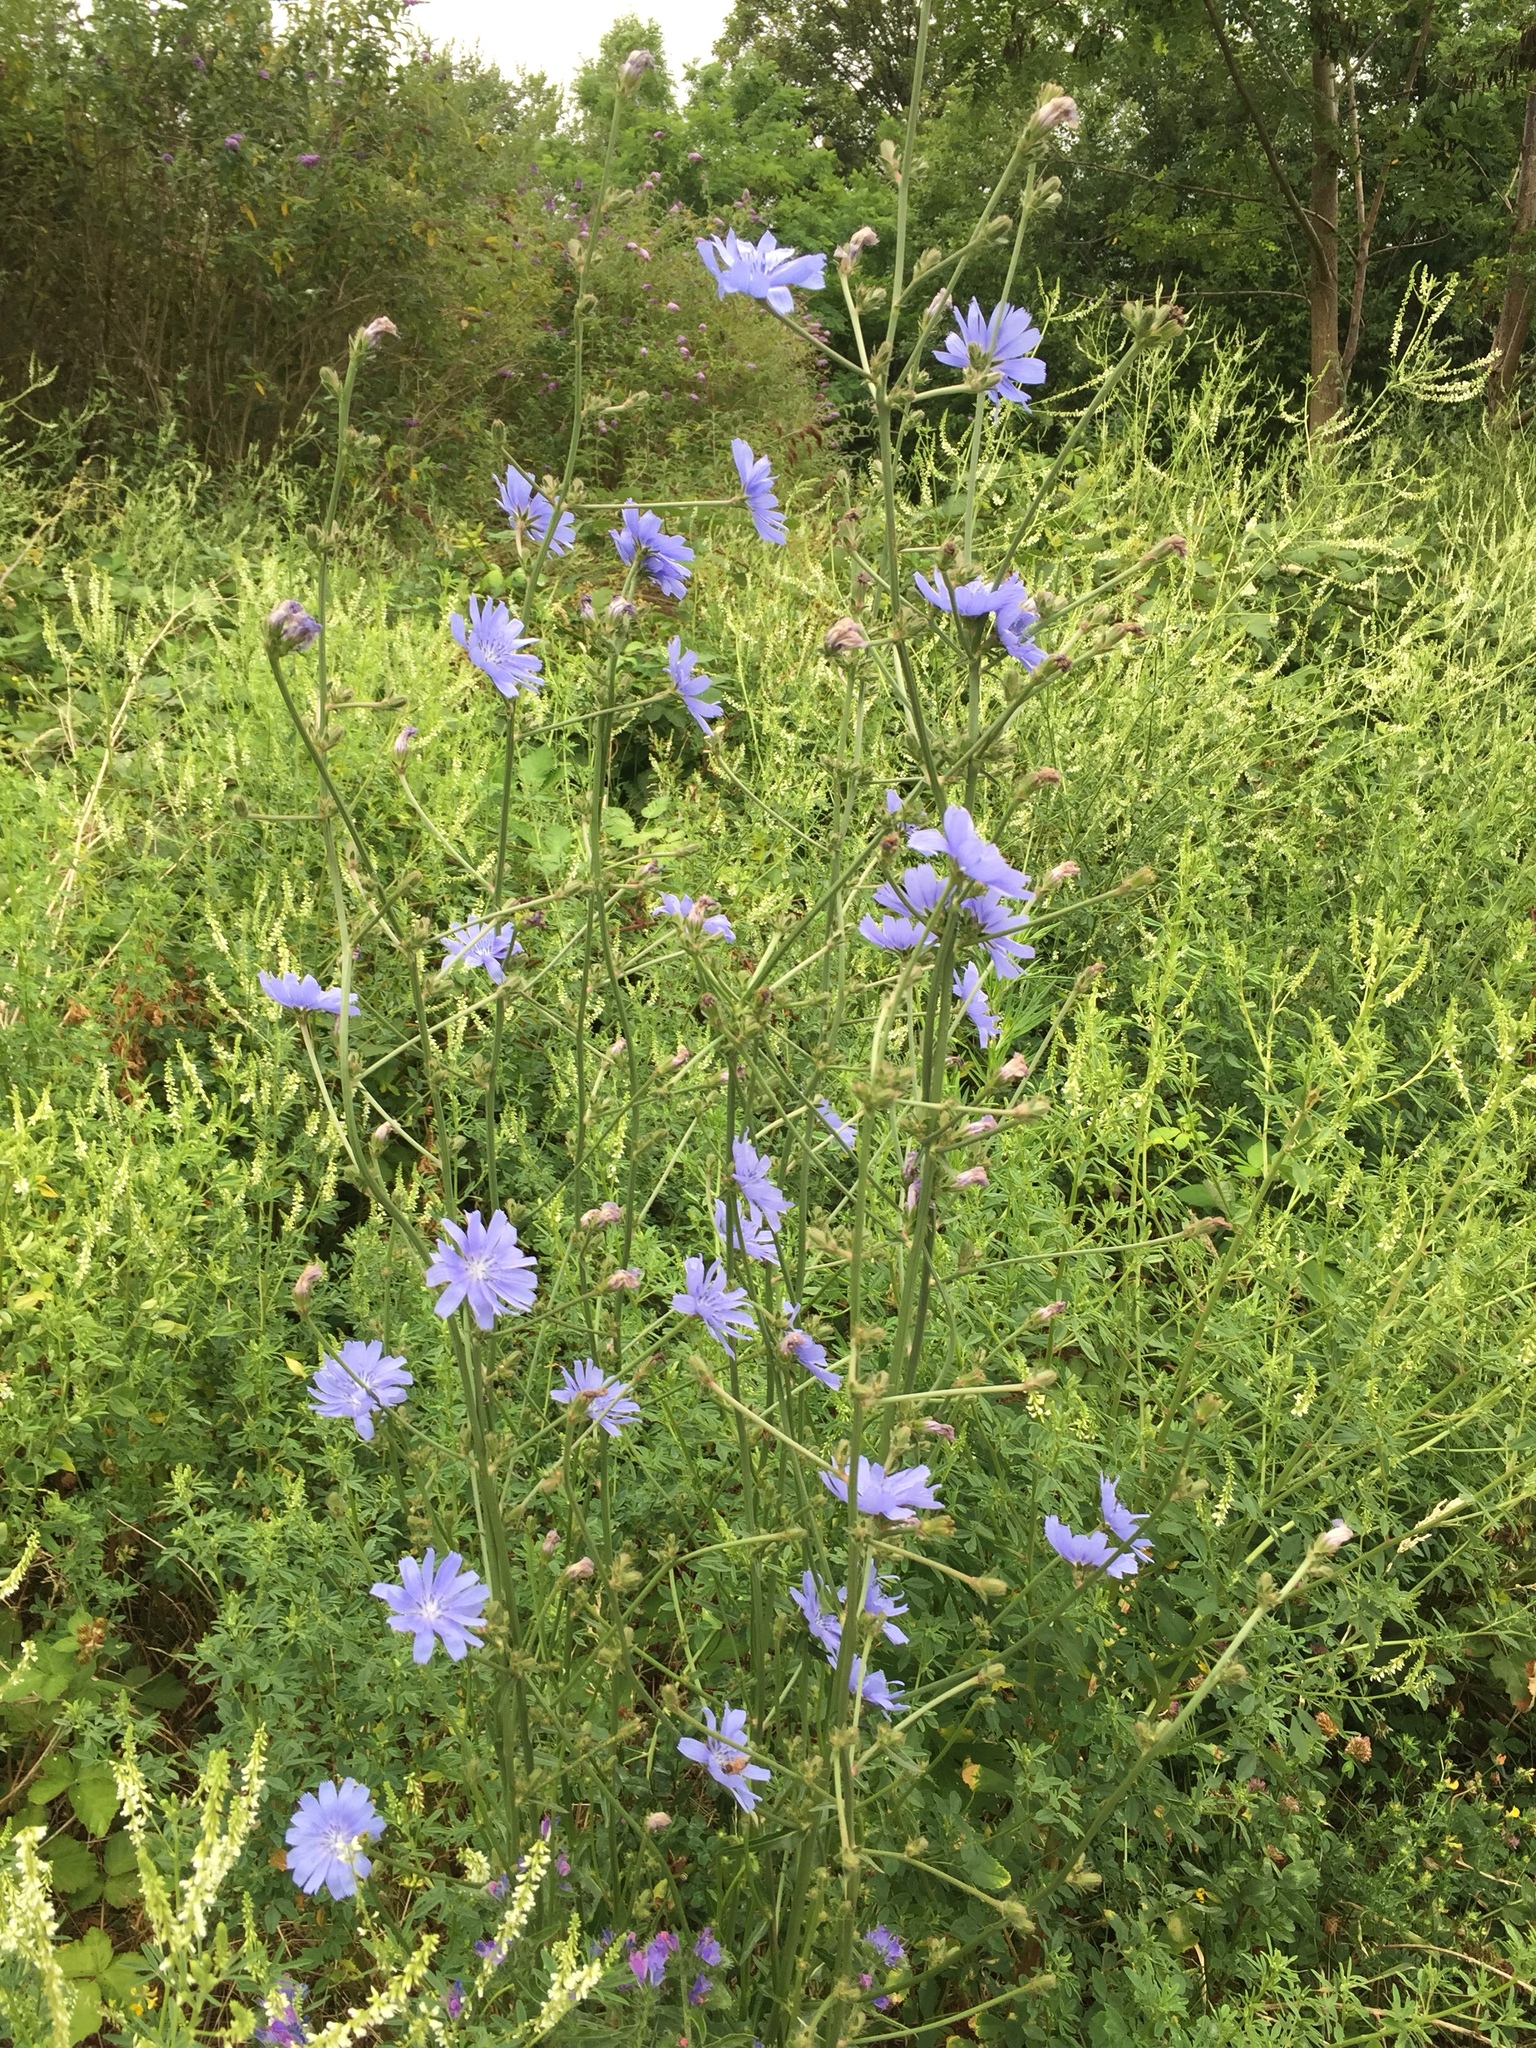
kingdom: Plantae
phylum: Tracheophyta
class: Magnoliopsida
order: Asterales
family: Asteraceae
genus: Cichorium
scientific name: Cichorium intybus
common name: Chicory
